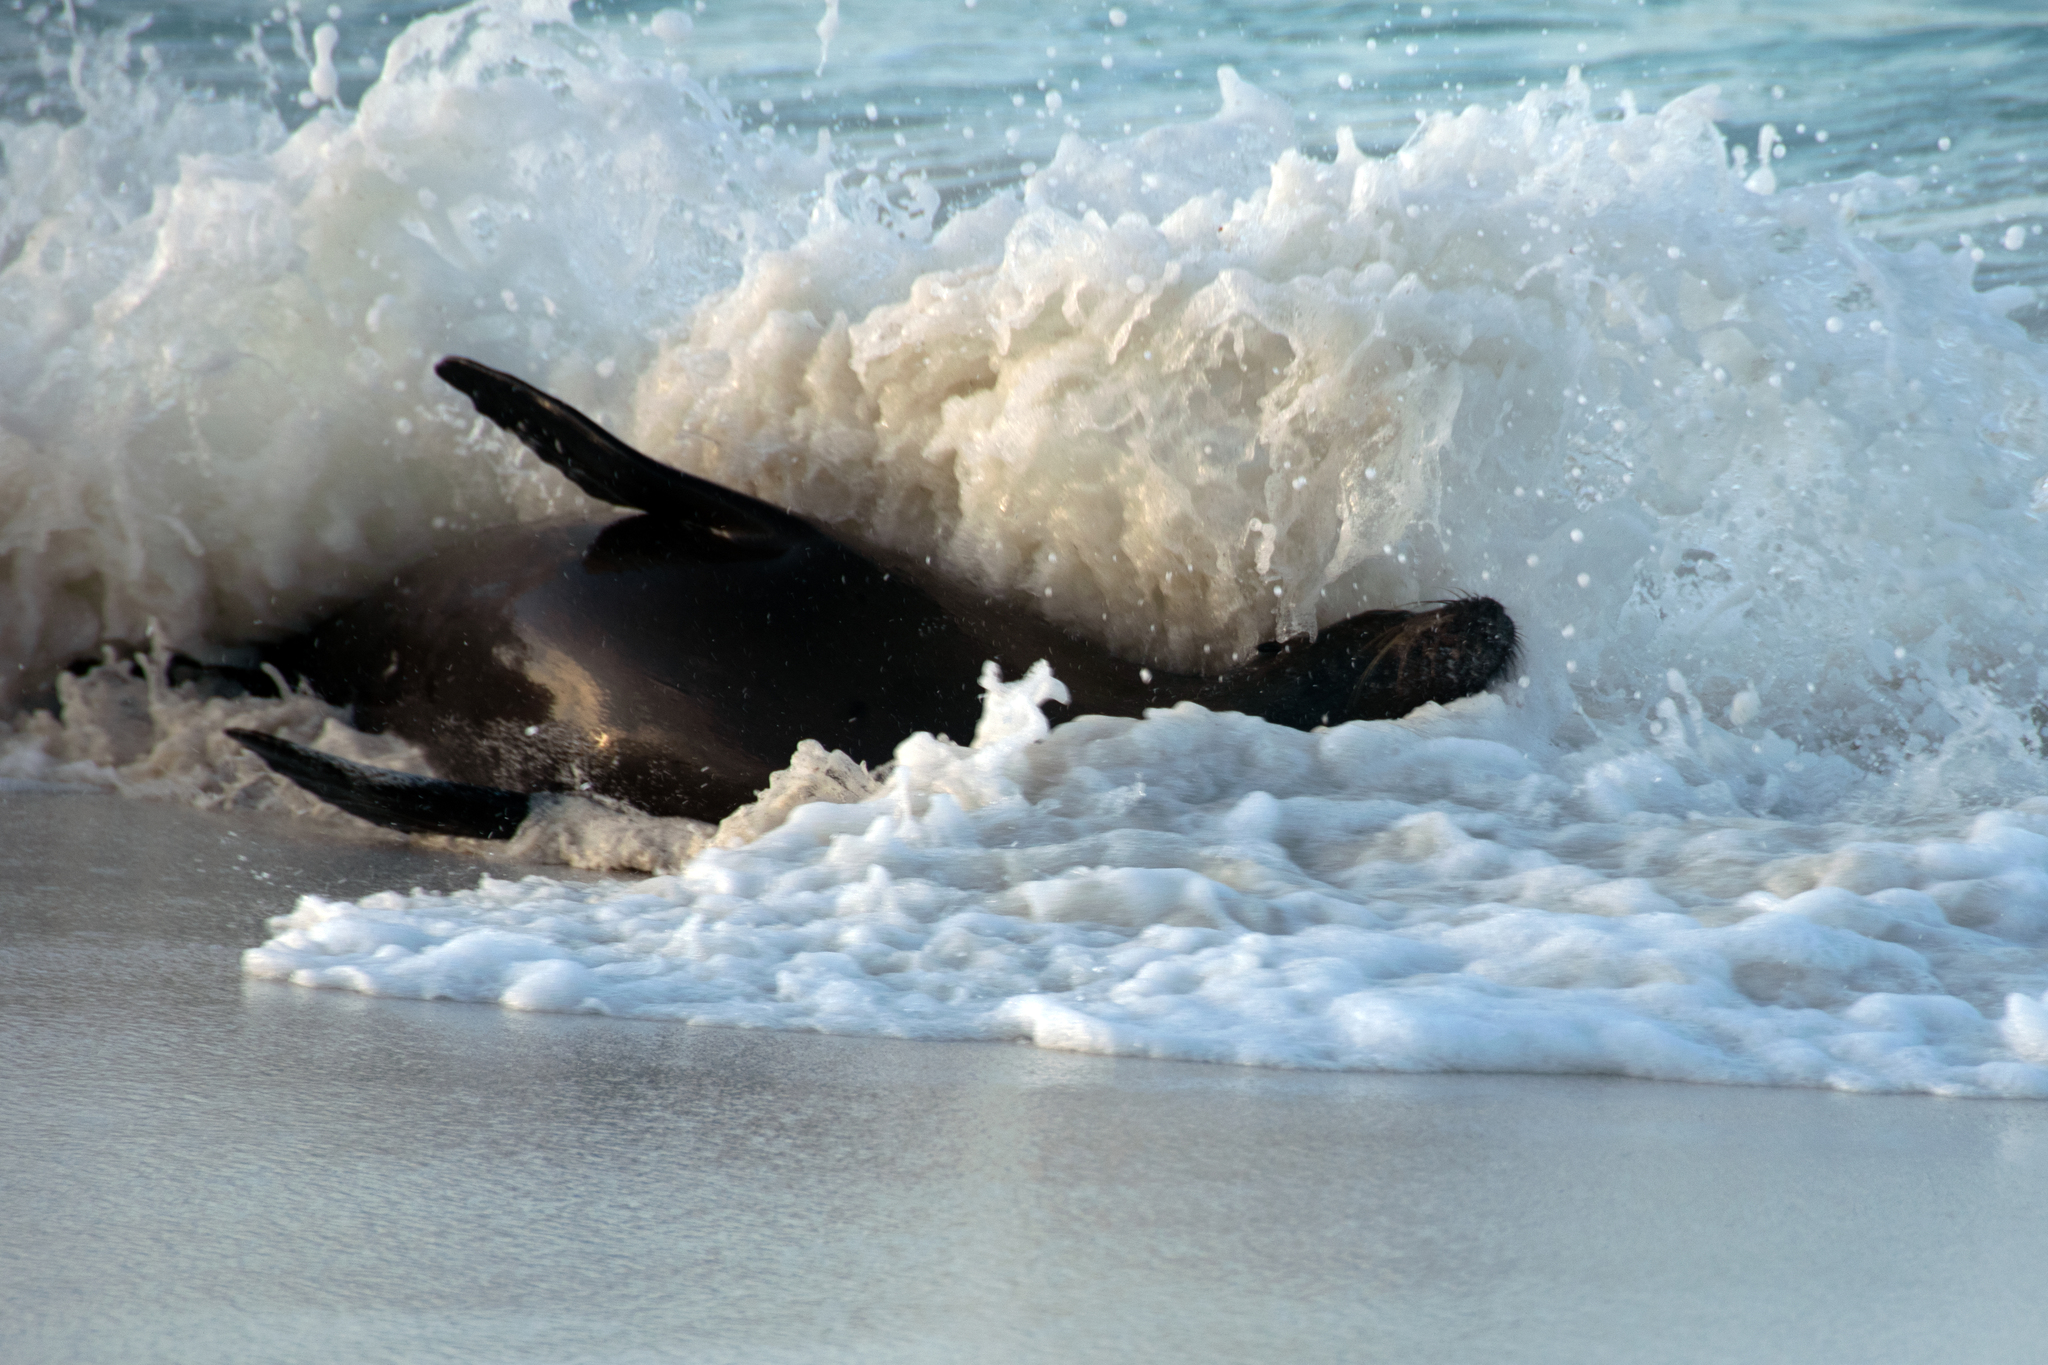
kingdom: Animalia
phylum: Chordata
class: Mammalia
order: Carnivora
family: Otariidae
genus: Zalophus
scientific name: Zalophus wollebaeki
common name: Galapagos sea lion
